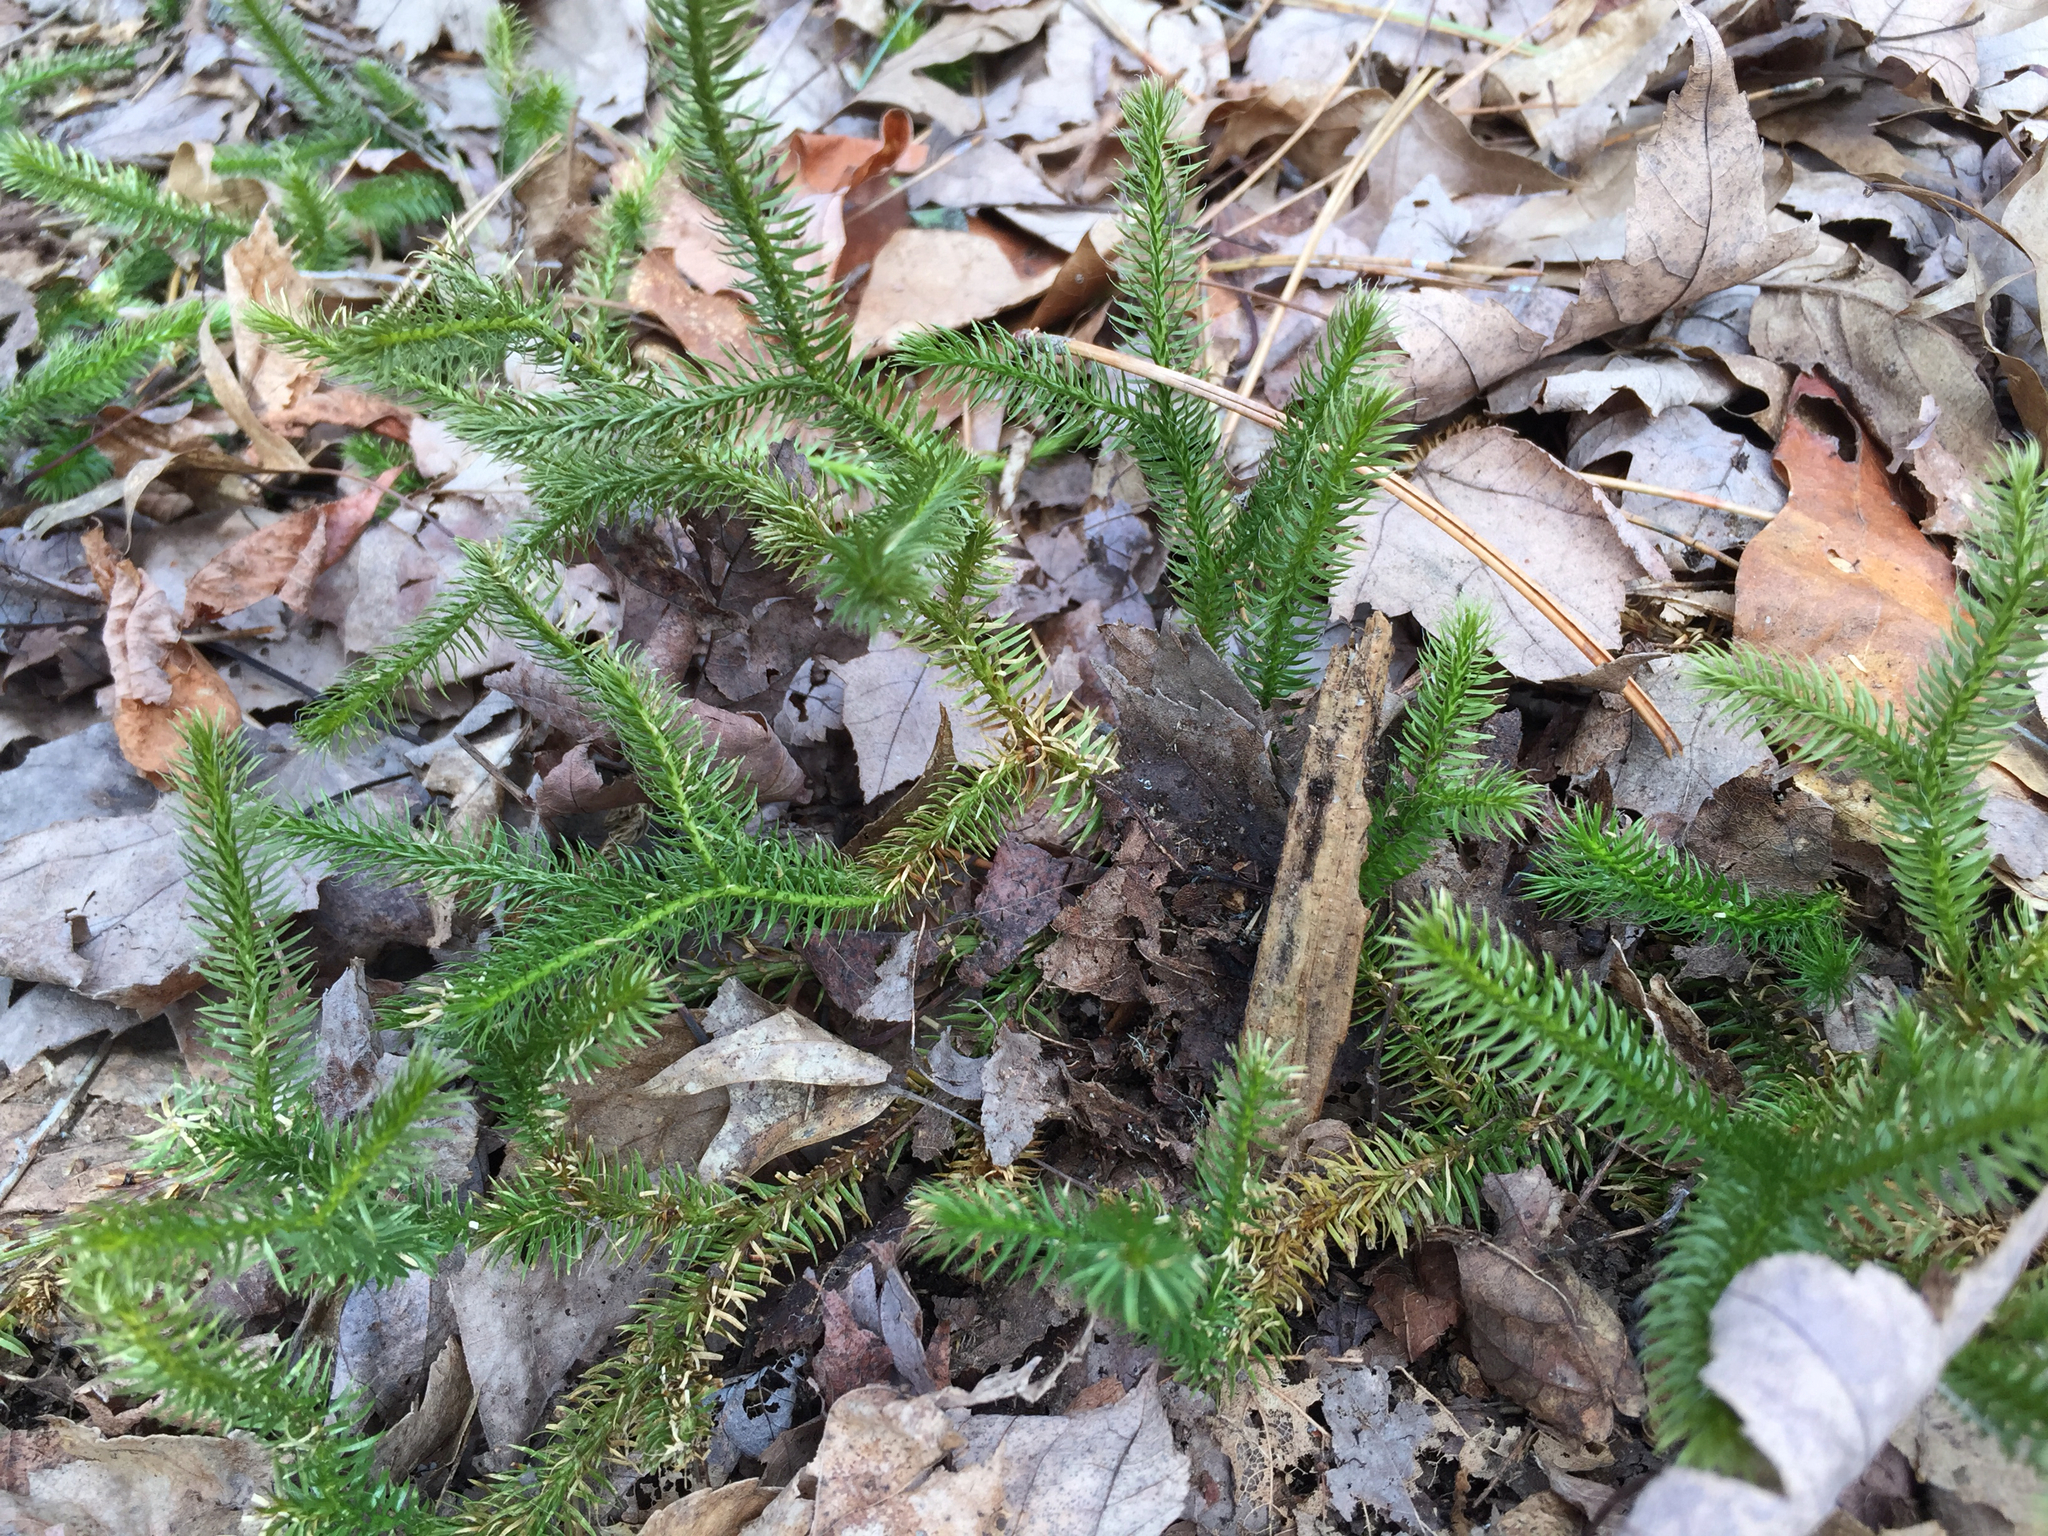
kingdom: Plantae
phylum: Tracheophyta
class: Lycopodiopsida
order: Lycopodiales
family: Lycopodiaceae
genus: Lycopodium
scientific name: Lycopodium clavatum
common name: Stag's-horn clubmoss
